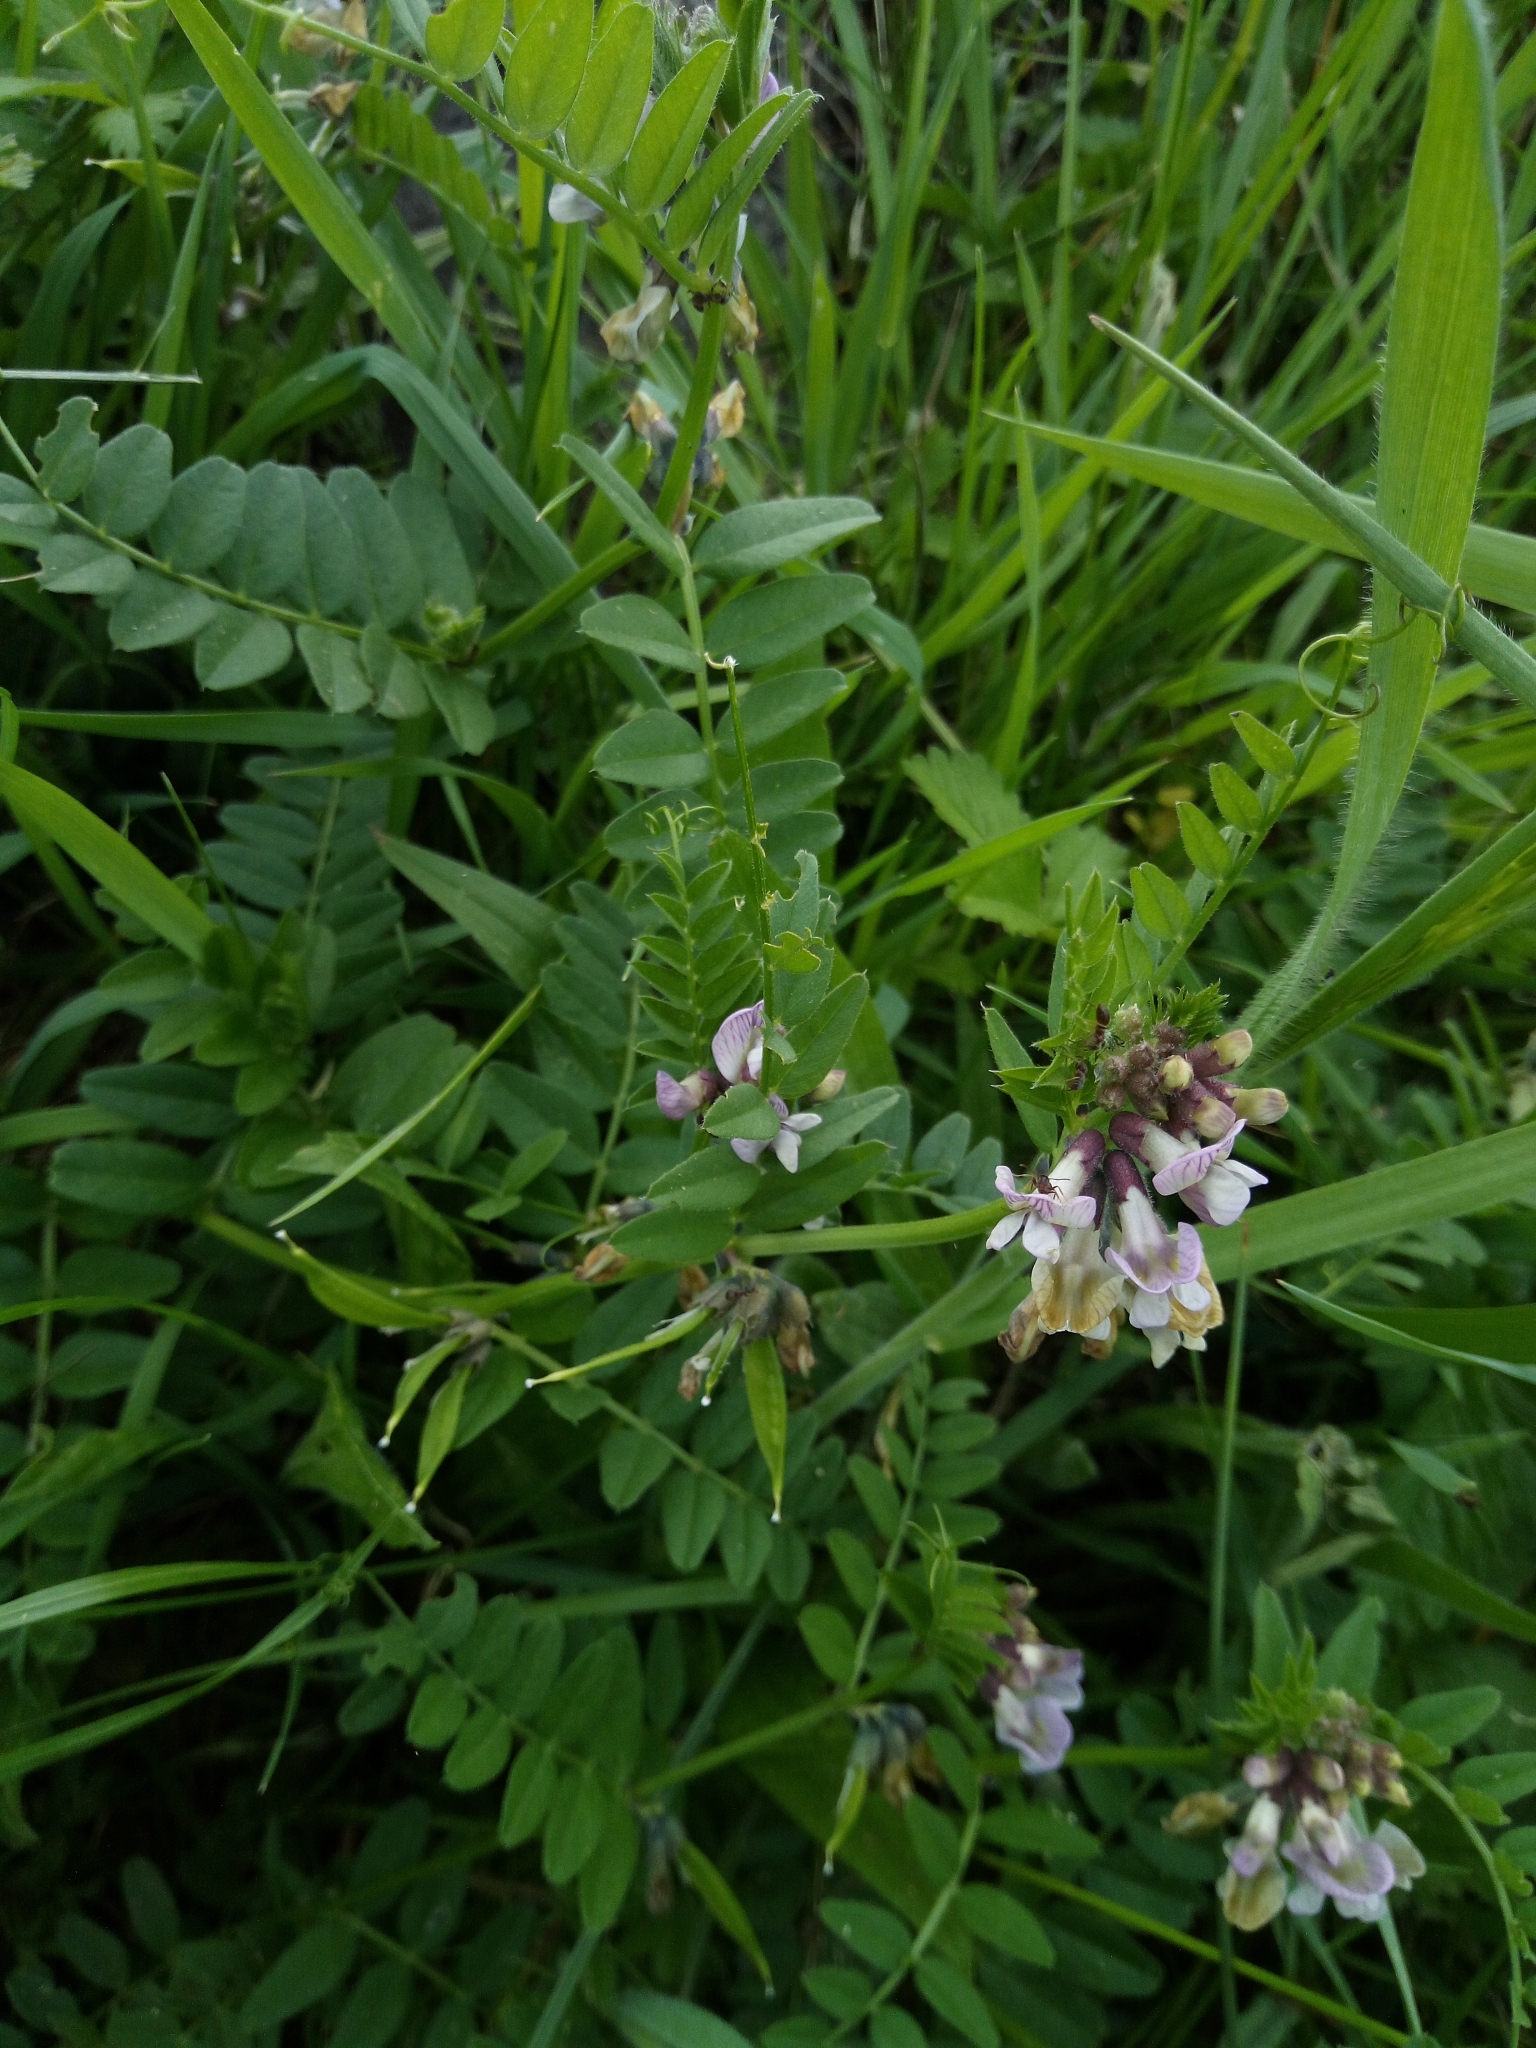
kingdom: Plantae
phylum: Tracheophyta
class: Magnoliopsida
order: Fabales
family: Fabaceae
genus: Vicia
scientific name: Vicia sepium
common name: Bush vetch
